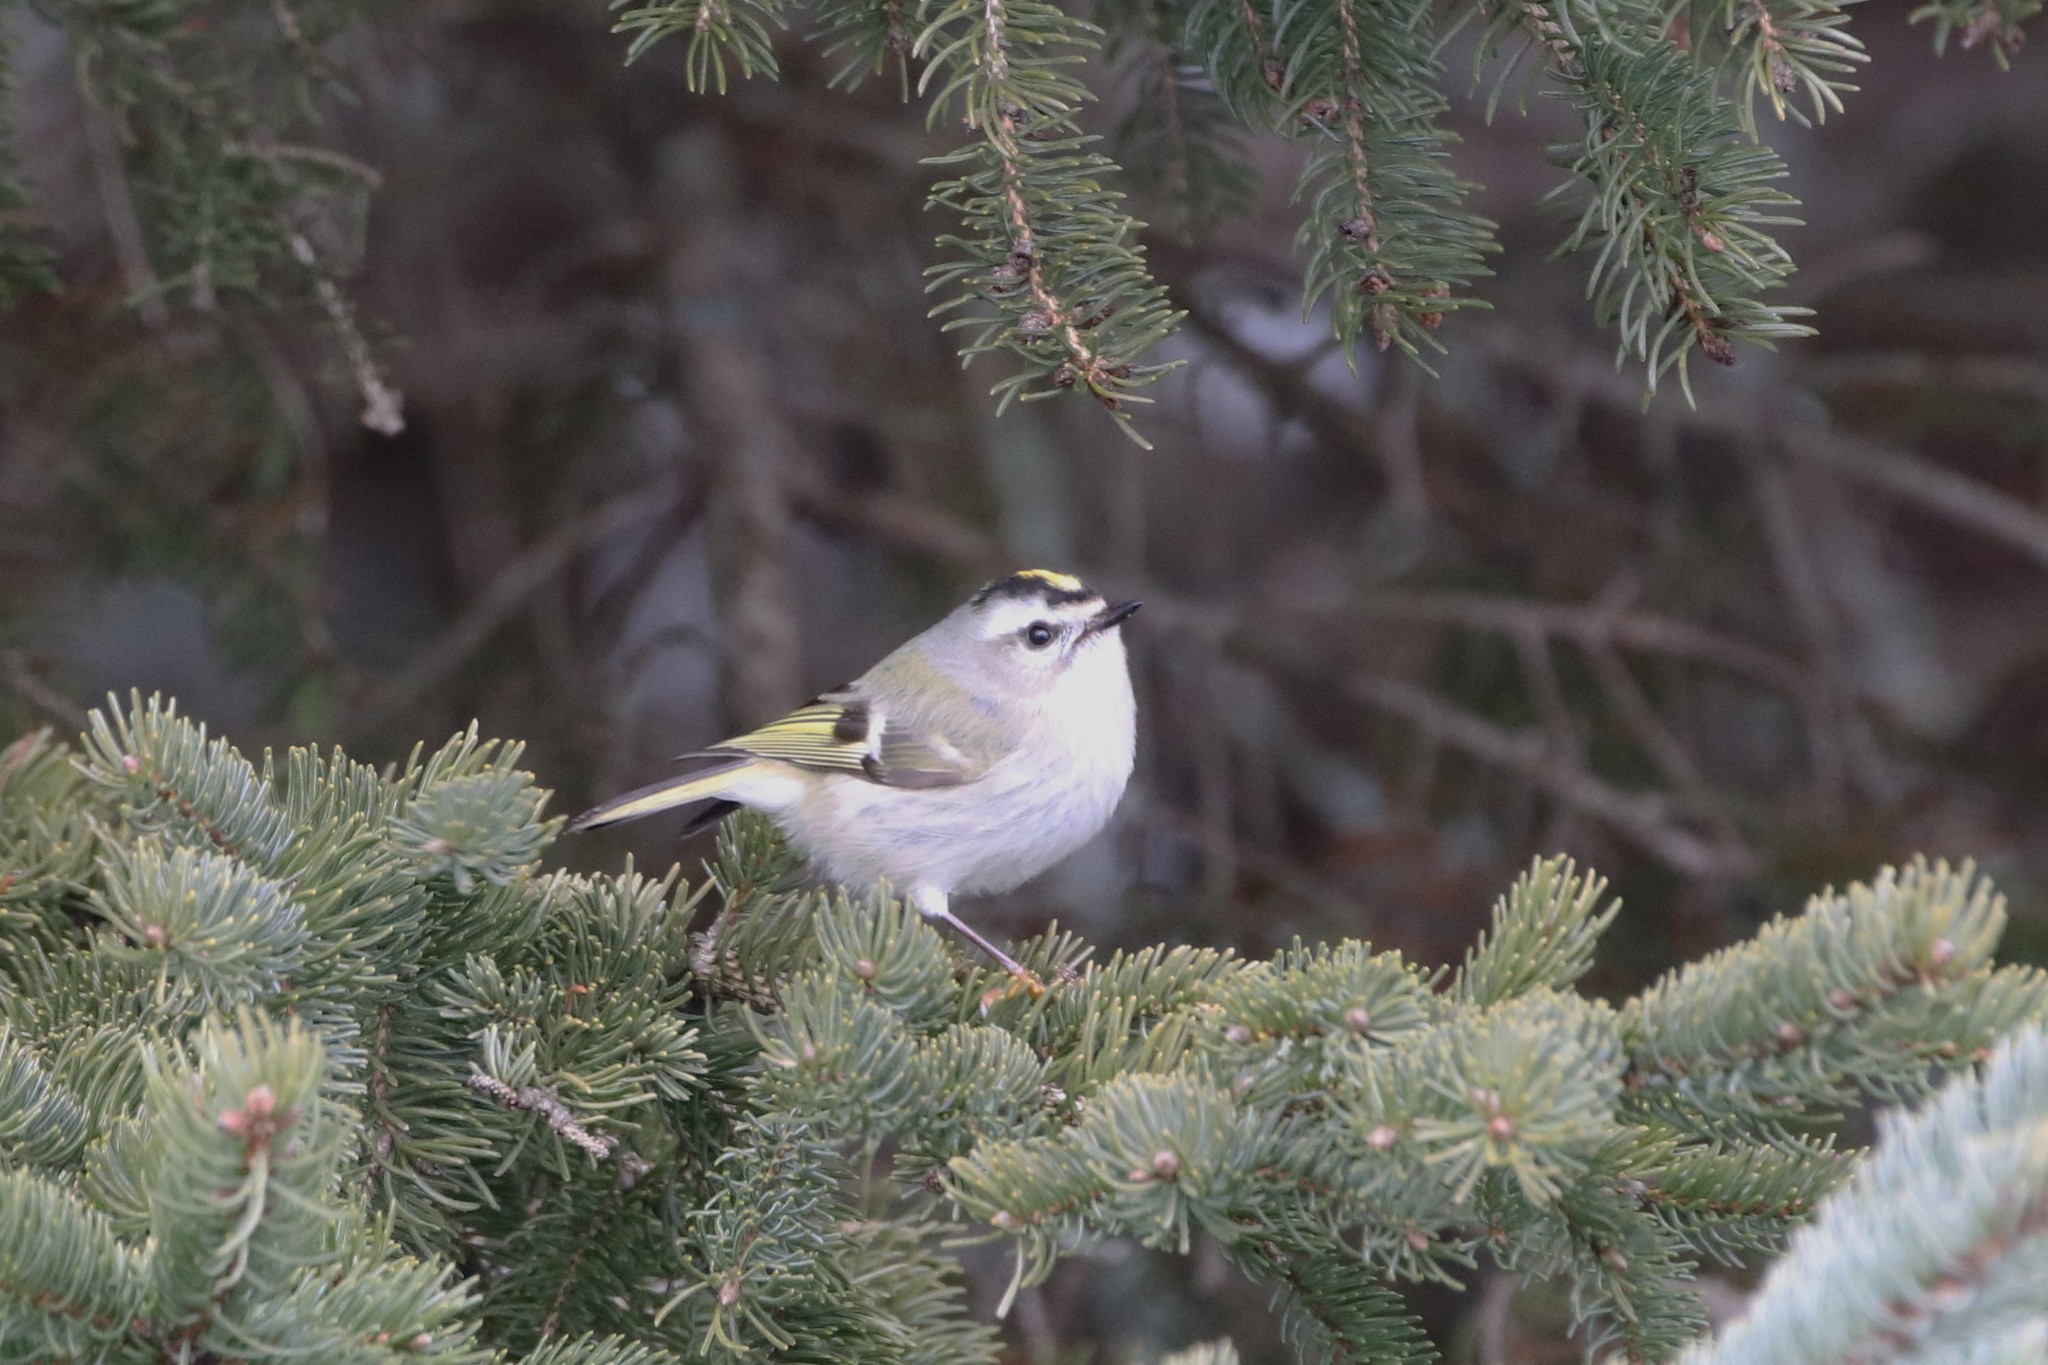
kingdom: Animalia
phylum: Chordata
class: Aves
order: Passeriformes
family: Regulidae
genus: Regulus
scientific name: Regulus satrapa
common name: Golden-crowned kinglet
